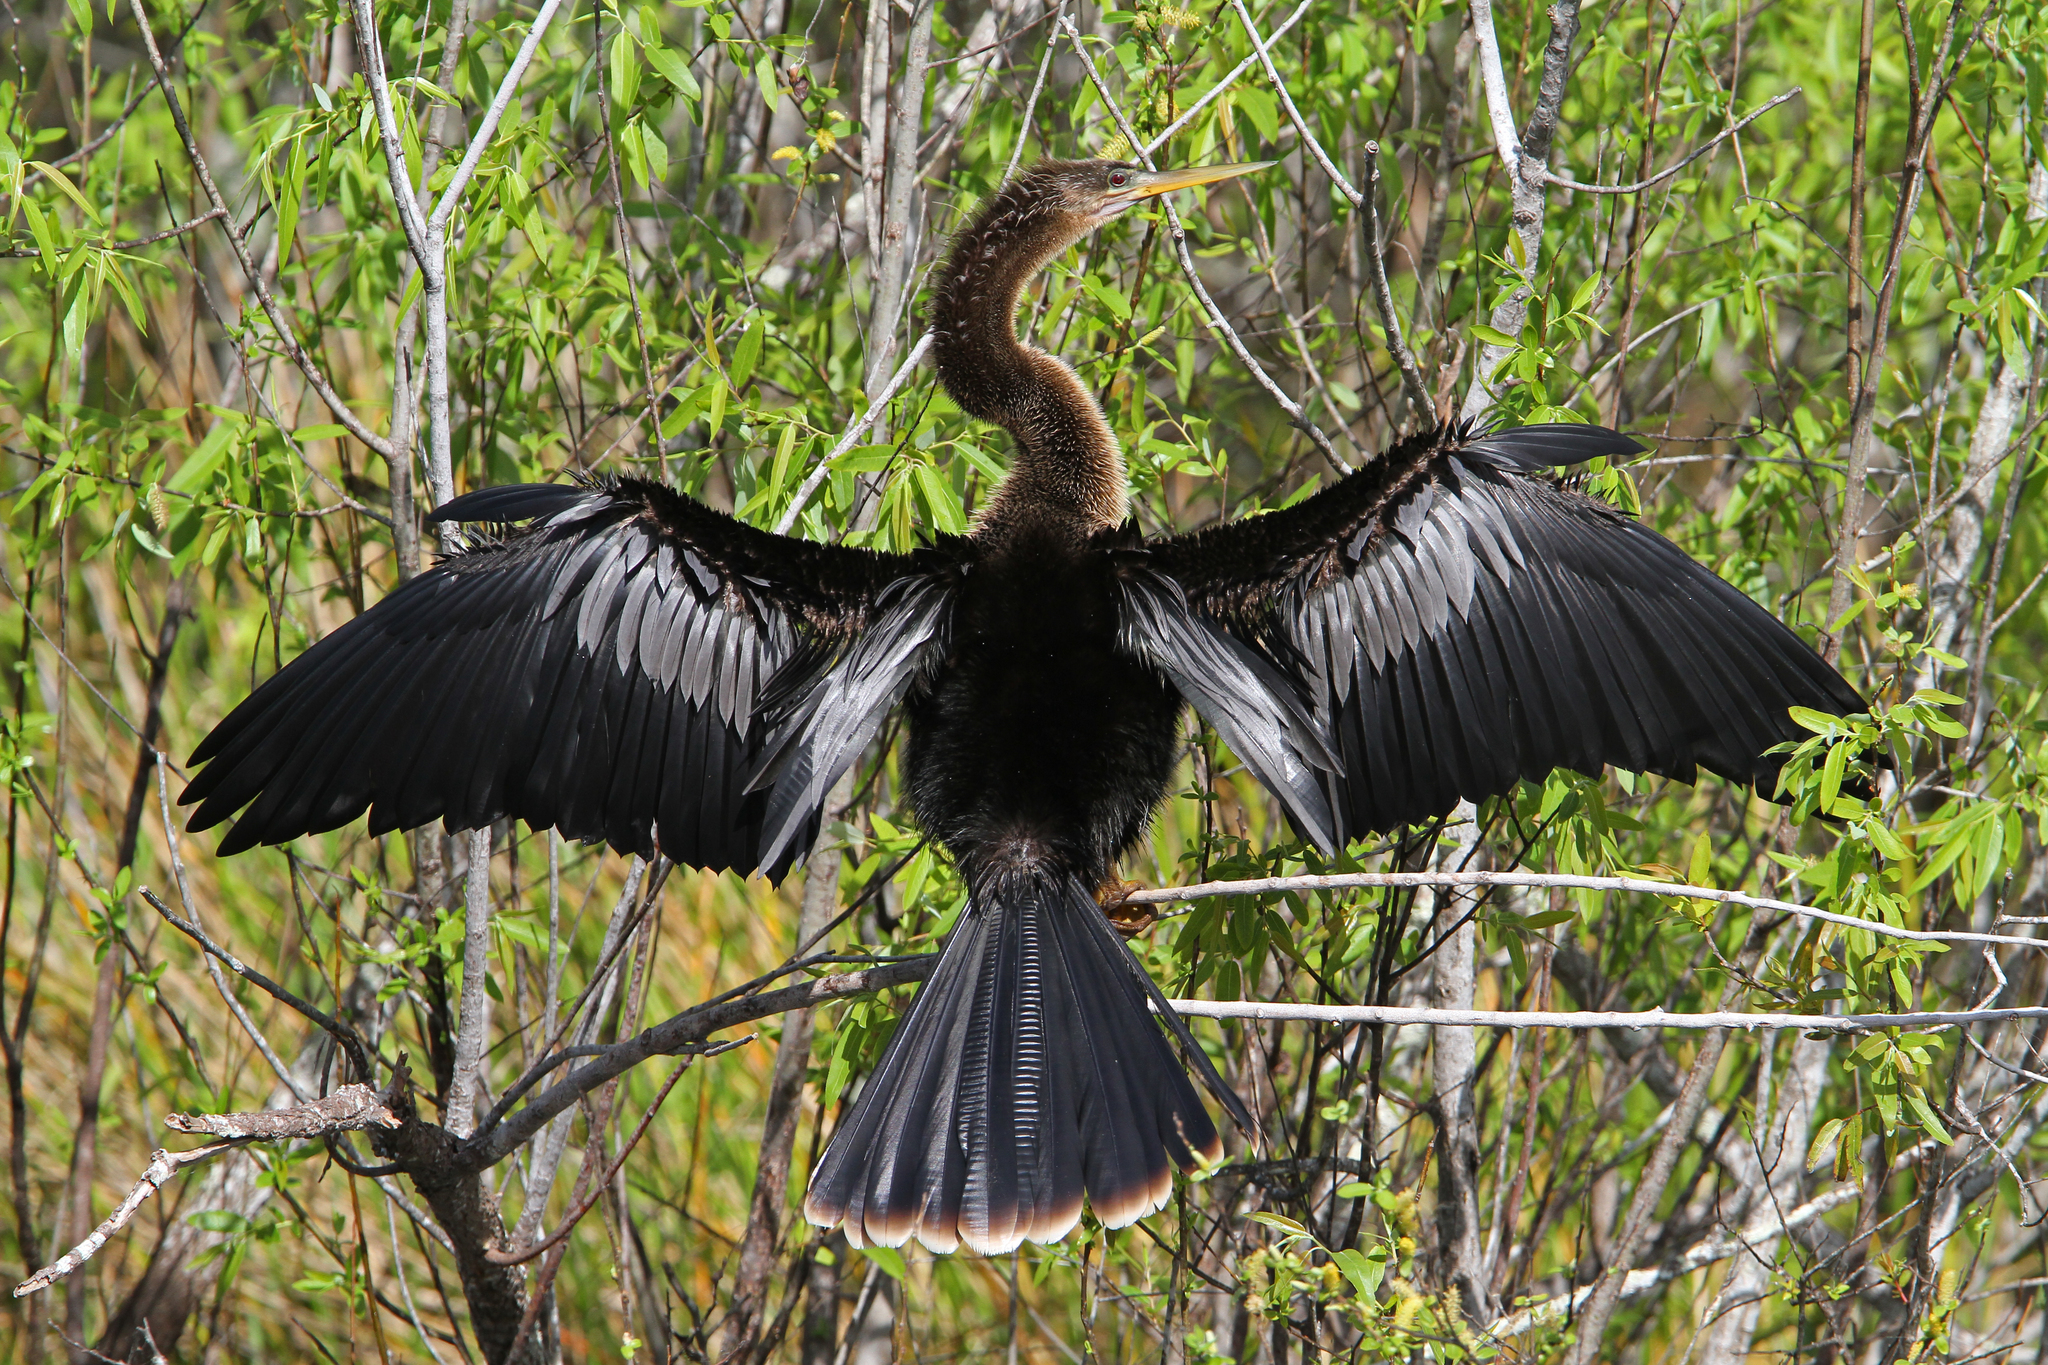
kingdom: Animalia
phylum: Chordata
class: Aves
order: Suliformes
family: Anhingidae
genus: Anhinga
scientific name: Anhinga anhinga
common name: Anhinga
